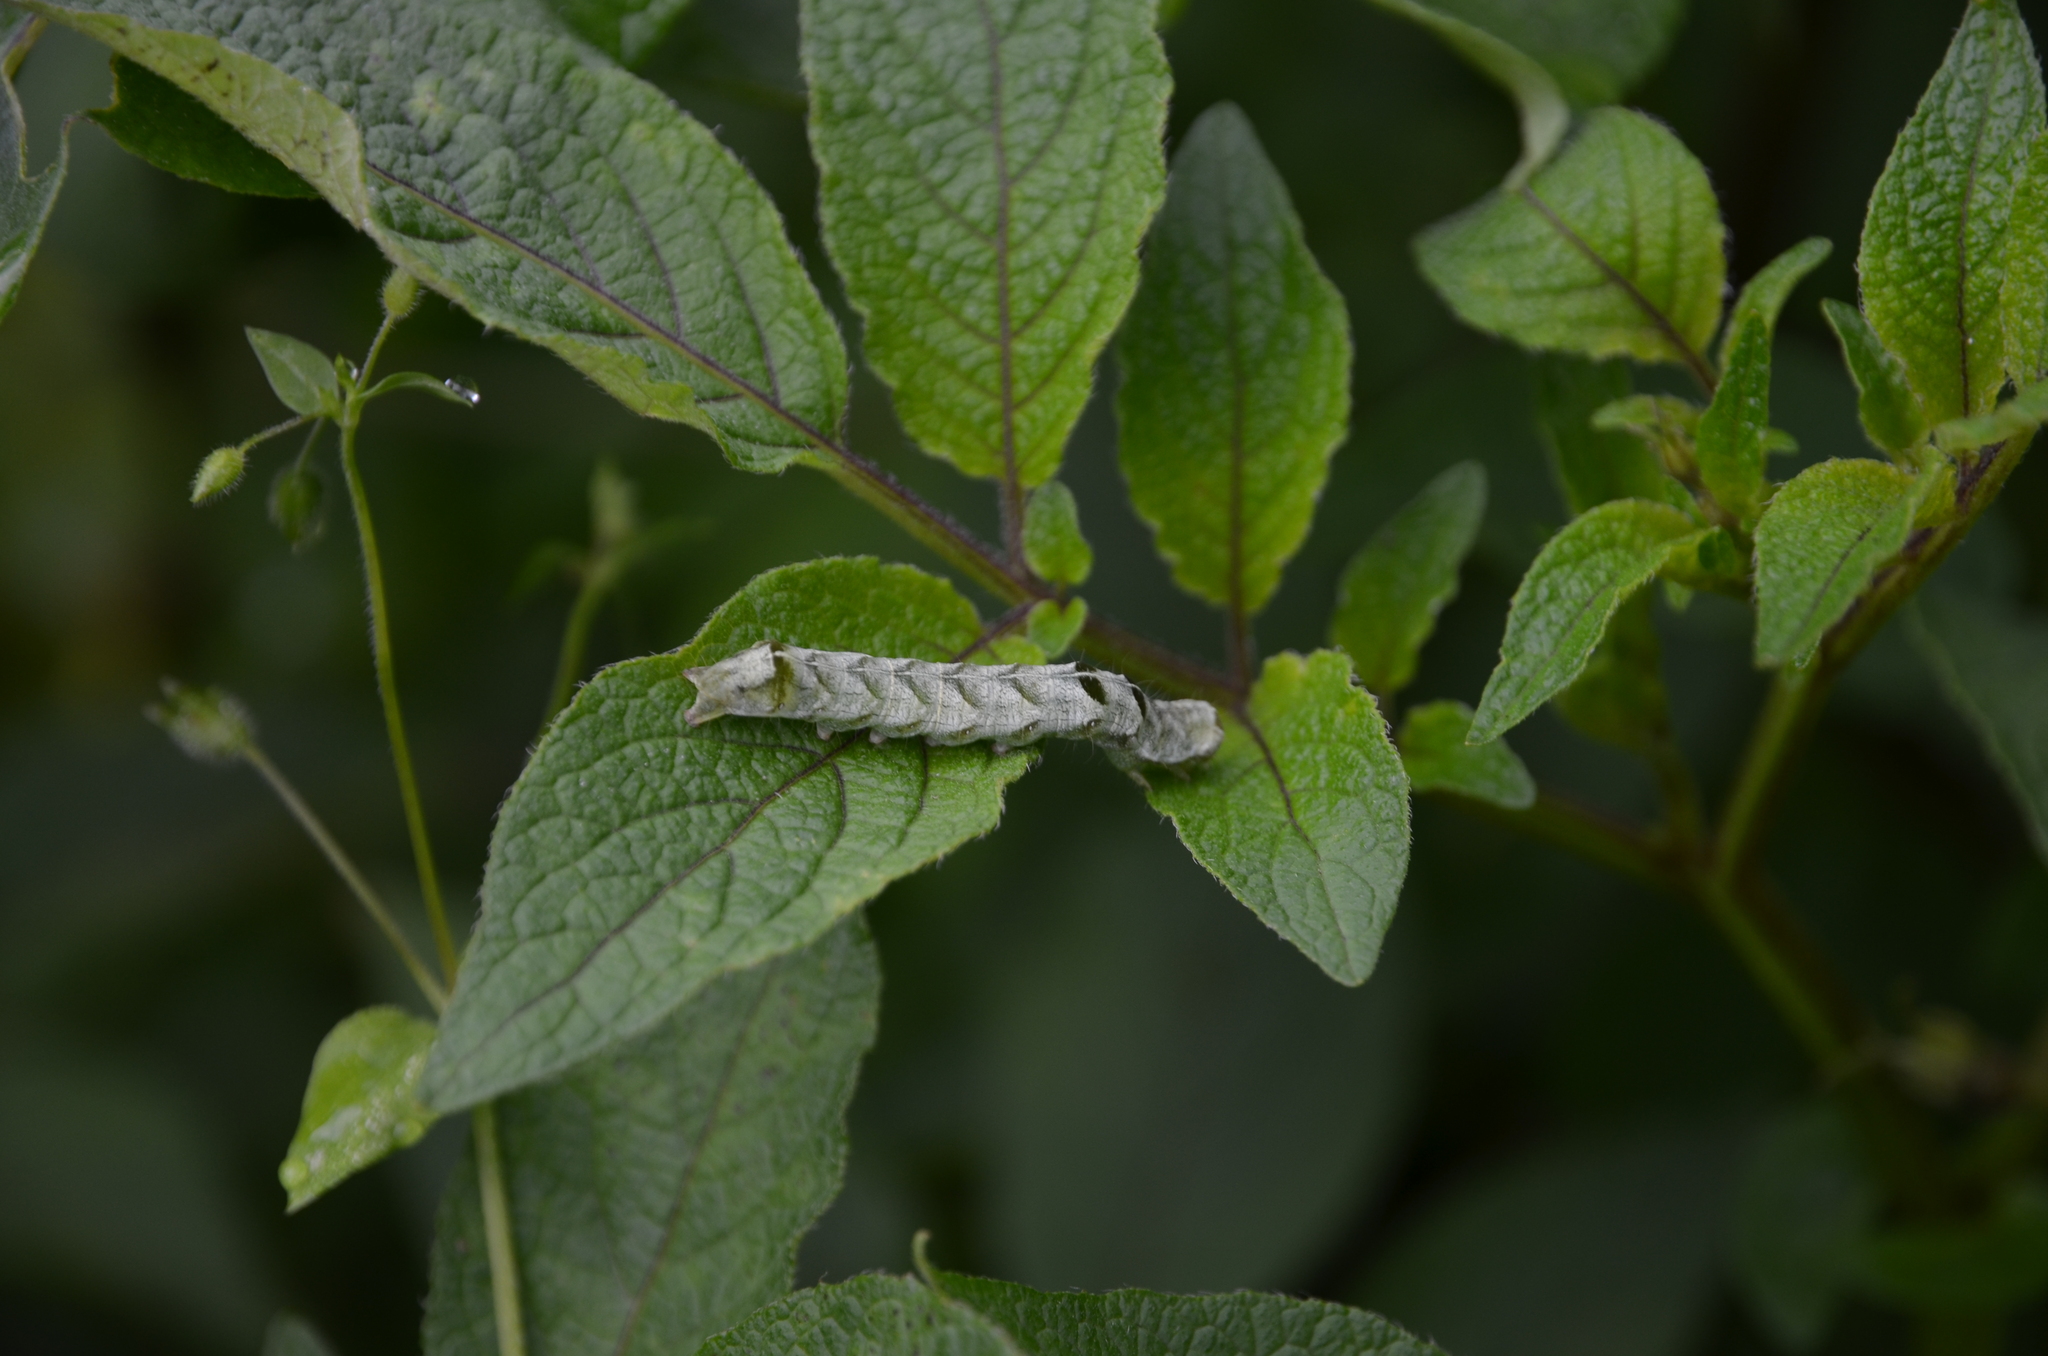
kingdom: Animalia
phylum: Arthropoda
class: Insecta
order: Lepidoptera
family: Noctuidae
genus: Melanchra
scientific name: Melanchra persicariae
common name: Dot moth
